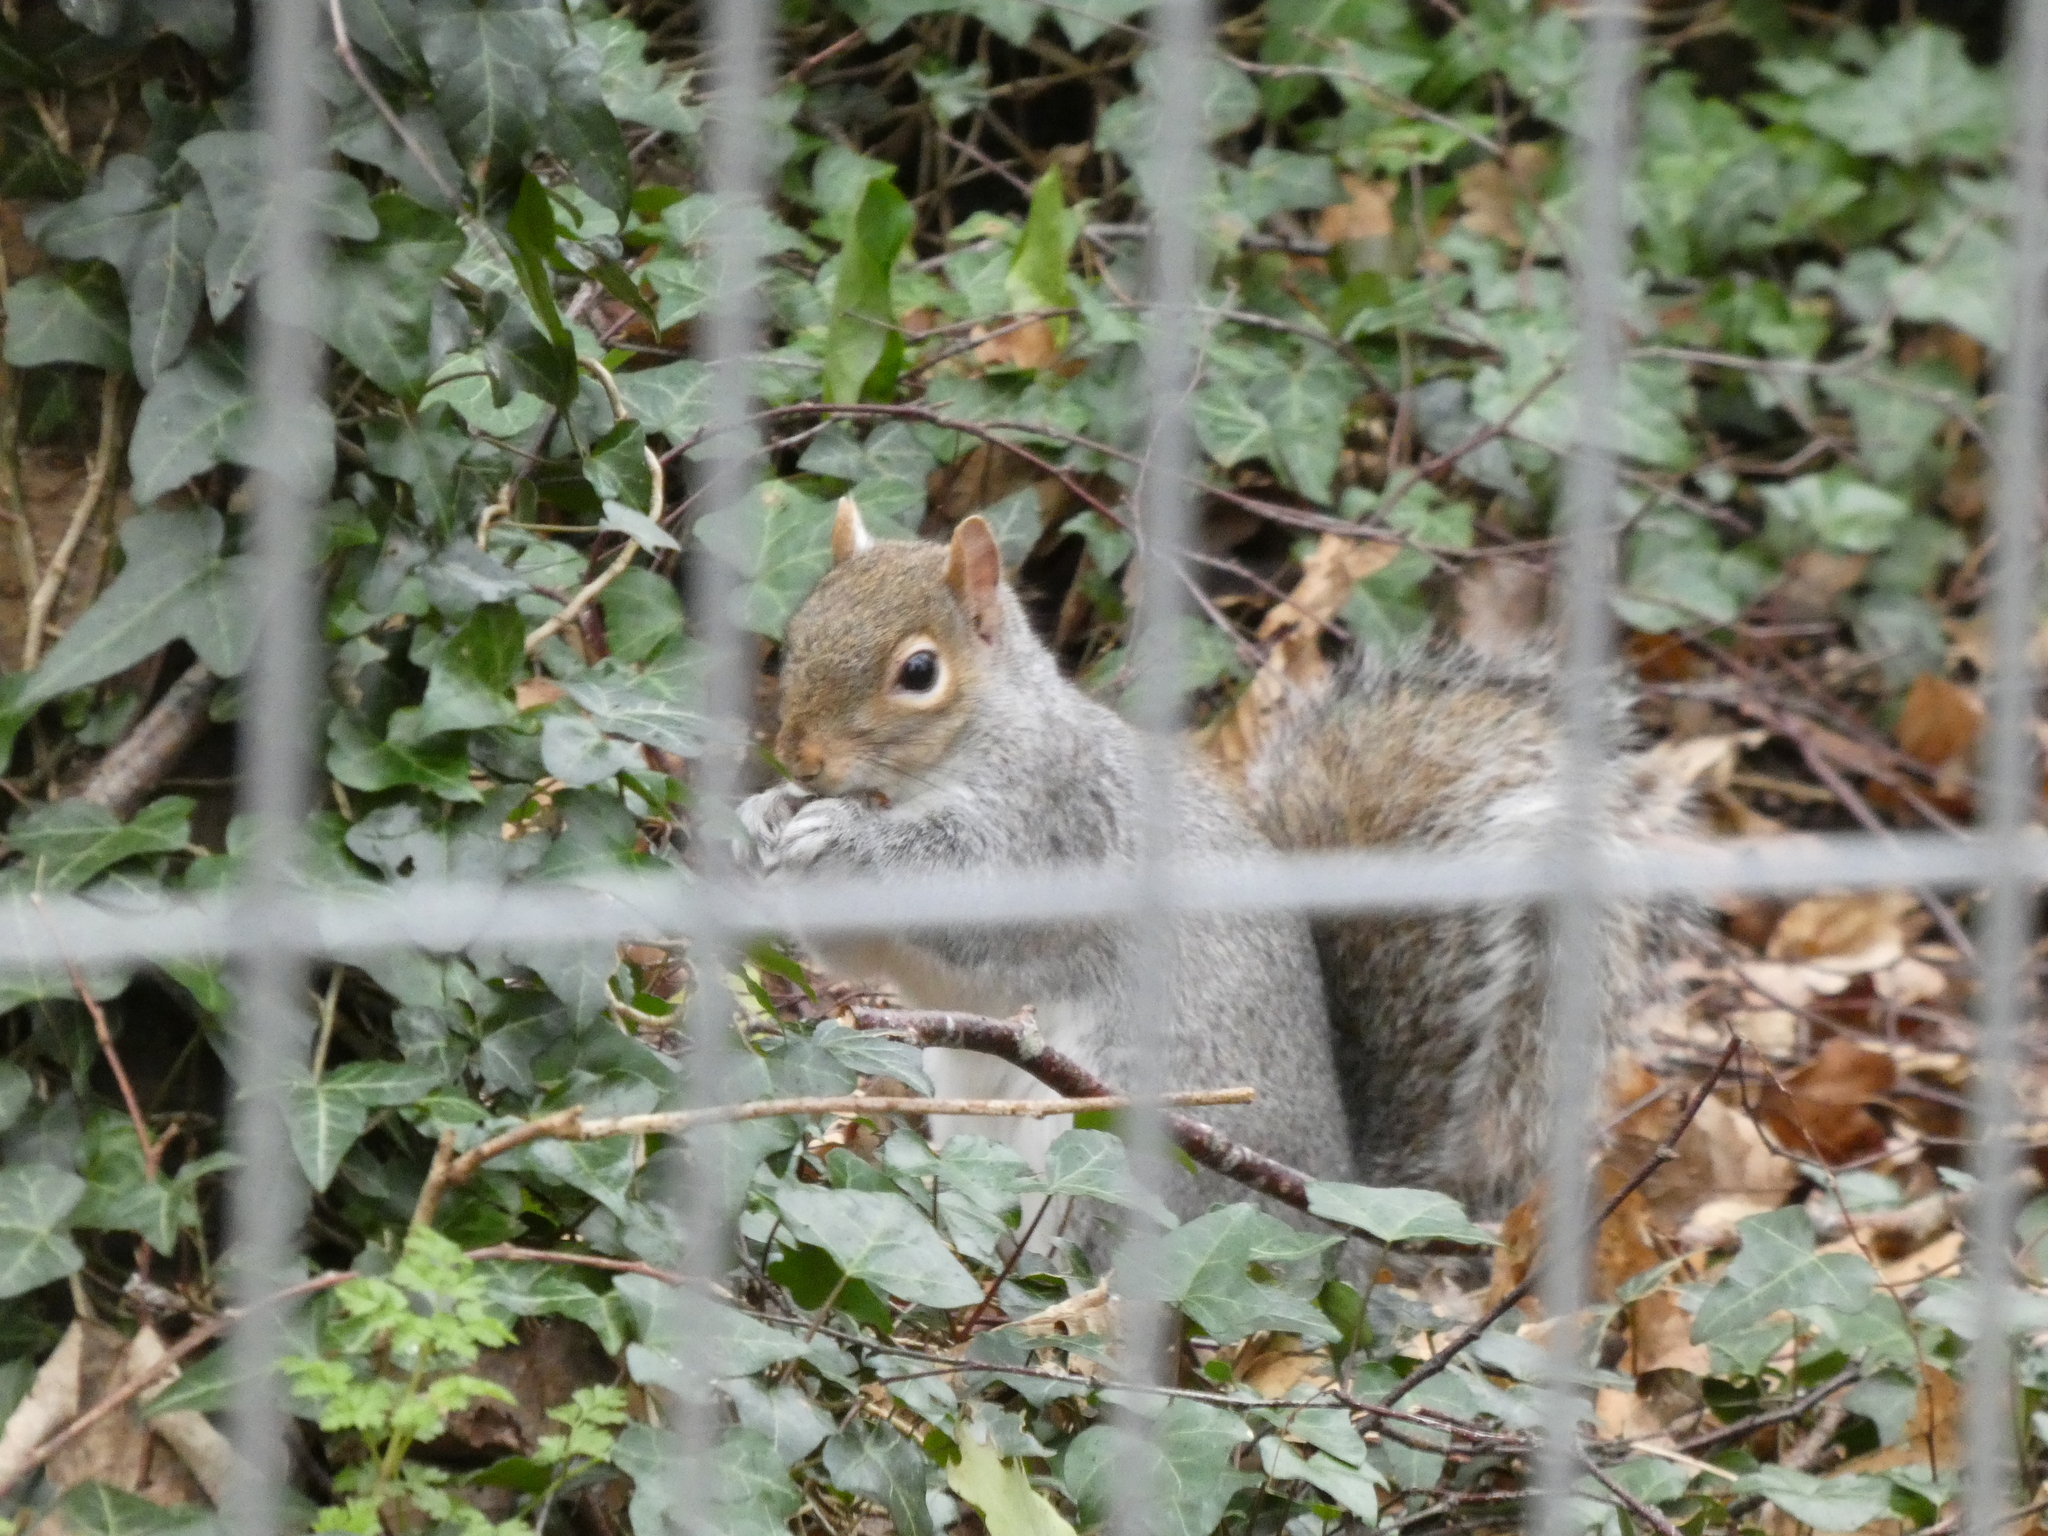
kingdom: Animalia
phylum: Chordata
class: Mammalia
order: Rodentia
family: Sciuridae
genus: Sciurus
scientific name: Sciurus carolinensis
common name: Eastern gray squirrel
